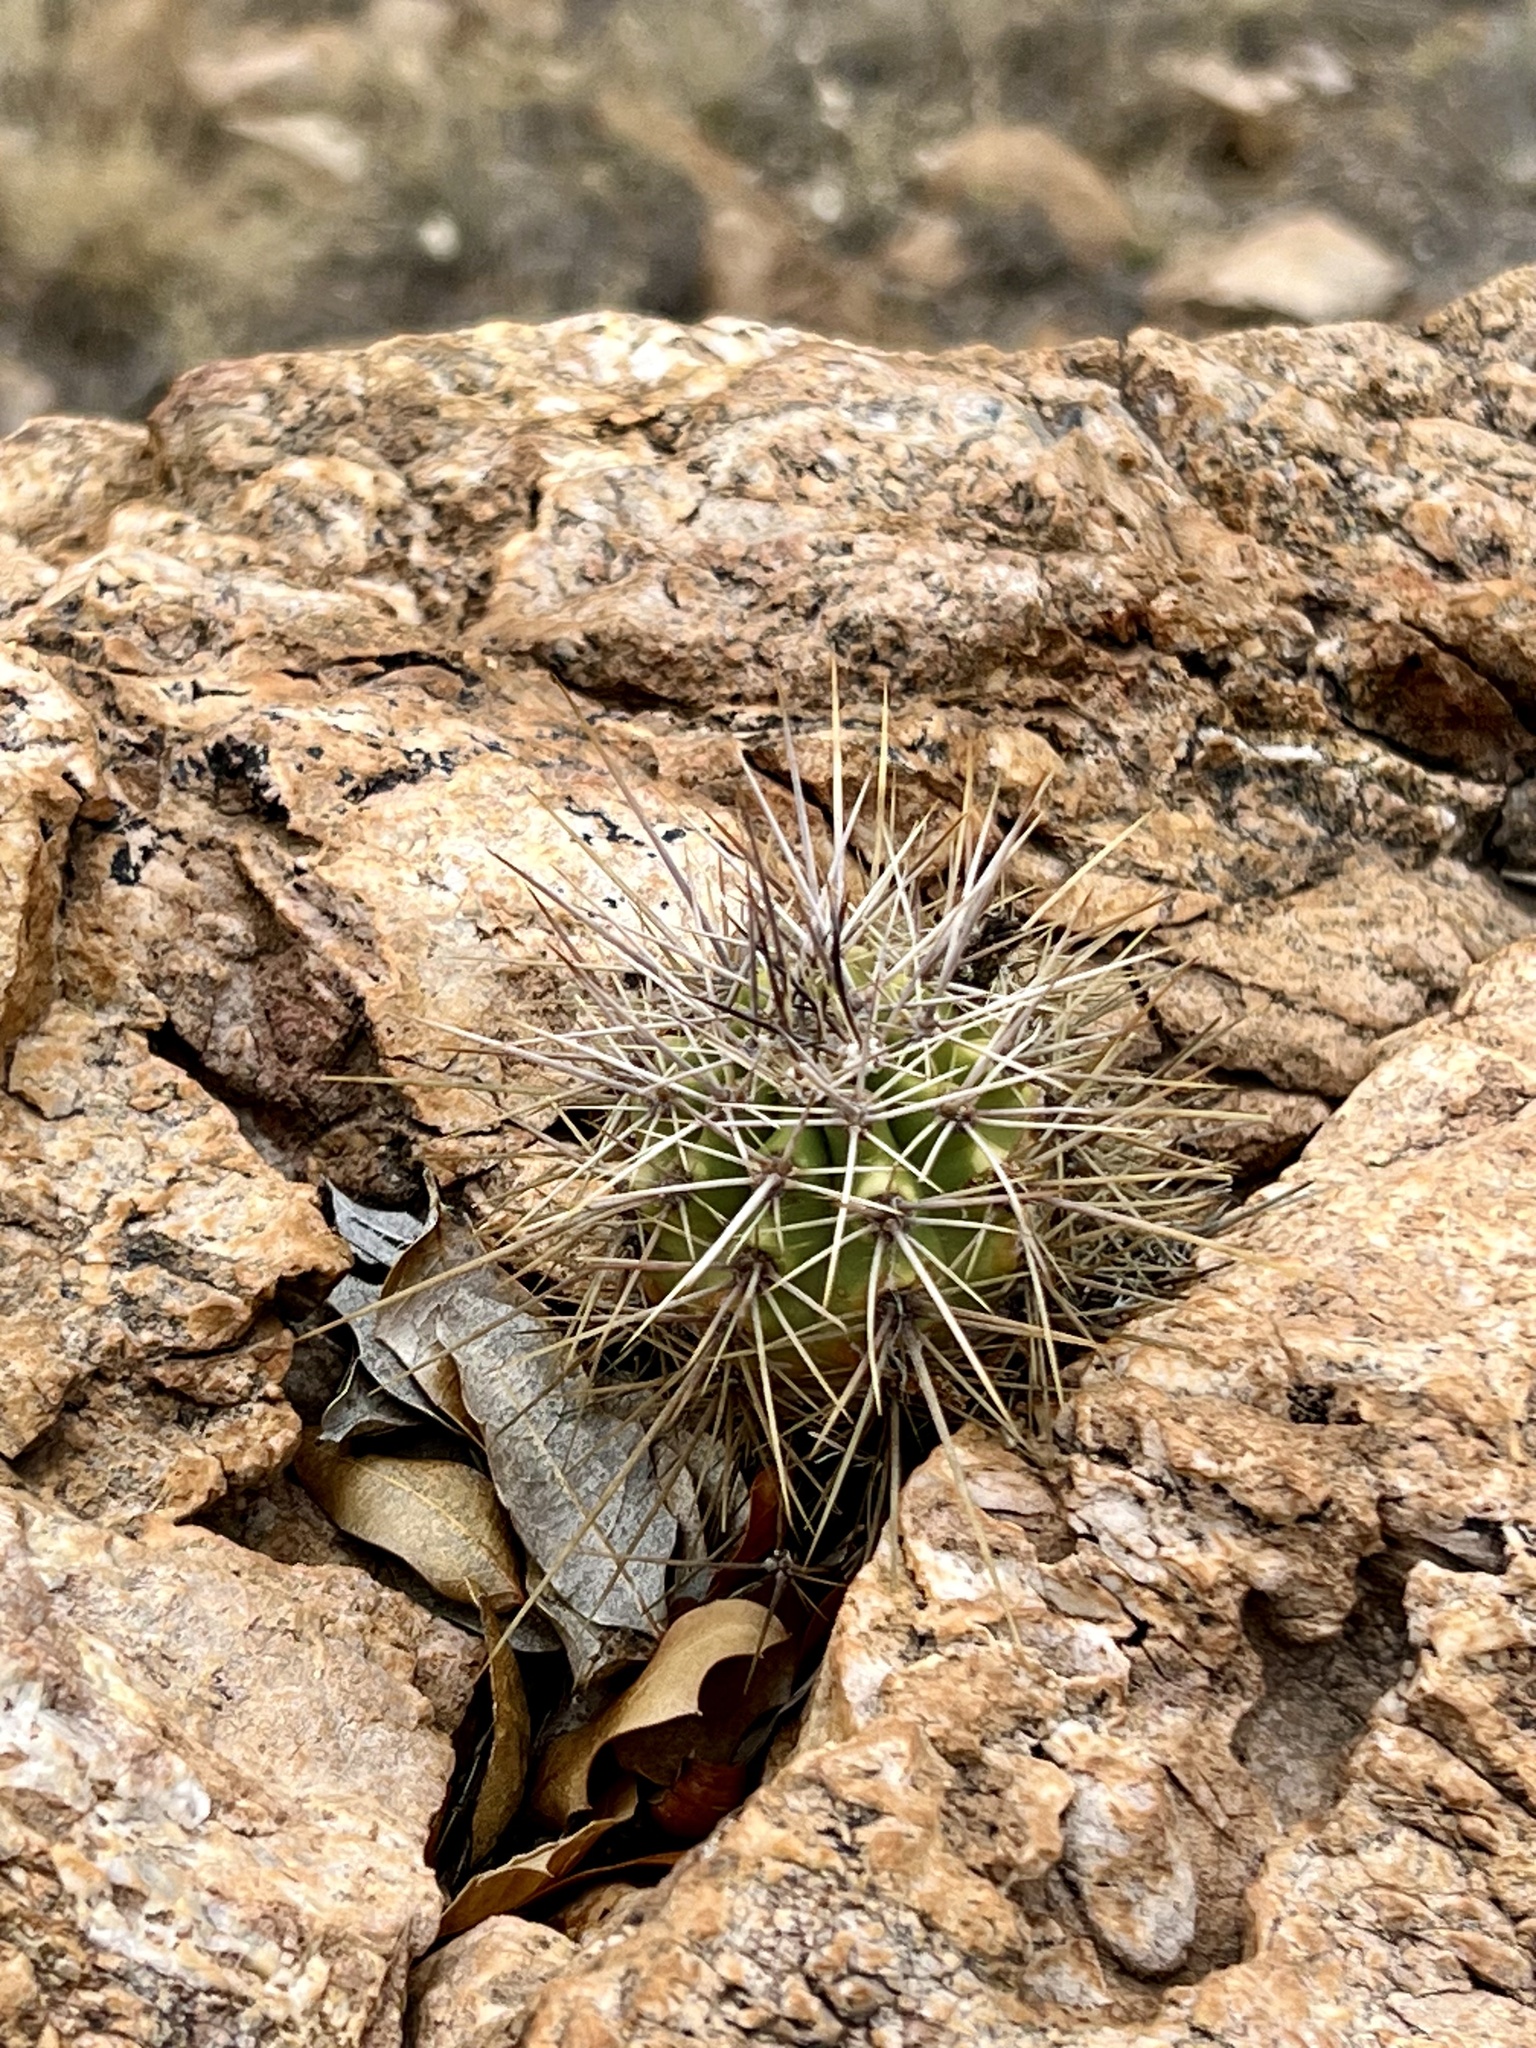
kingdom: Plantae
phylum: Tracheophyta
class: Magnoliopsida
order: Caryophyllales
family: Cactaceae
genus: Echinocereus
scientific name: Echinocereus arizonicus
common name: Arizona hedgehog cactus
